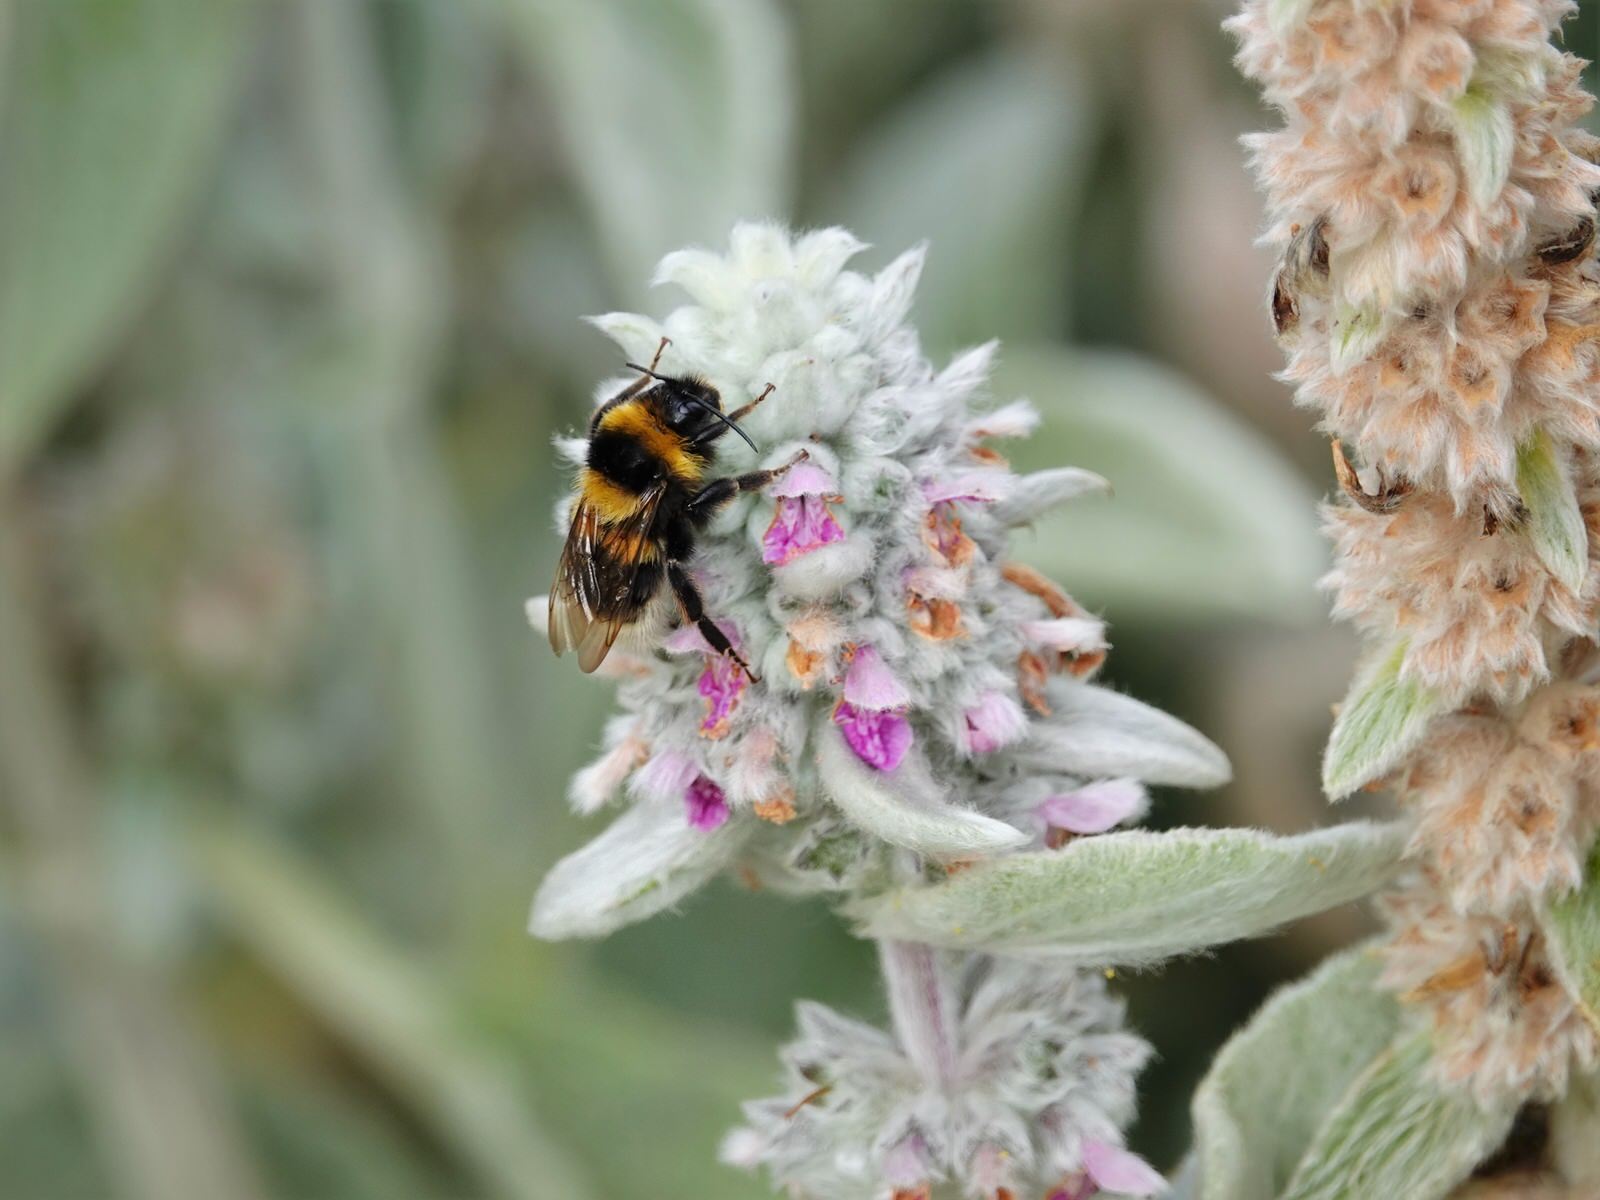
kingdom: Animalia
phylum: Arthropoda
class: Insecta
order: Hymenoptera
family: Apidae
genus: Bombus
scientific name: Bombus ruderatus
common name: Large garden bumblebee
